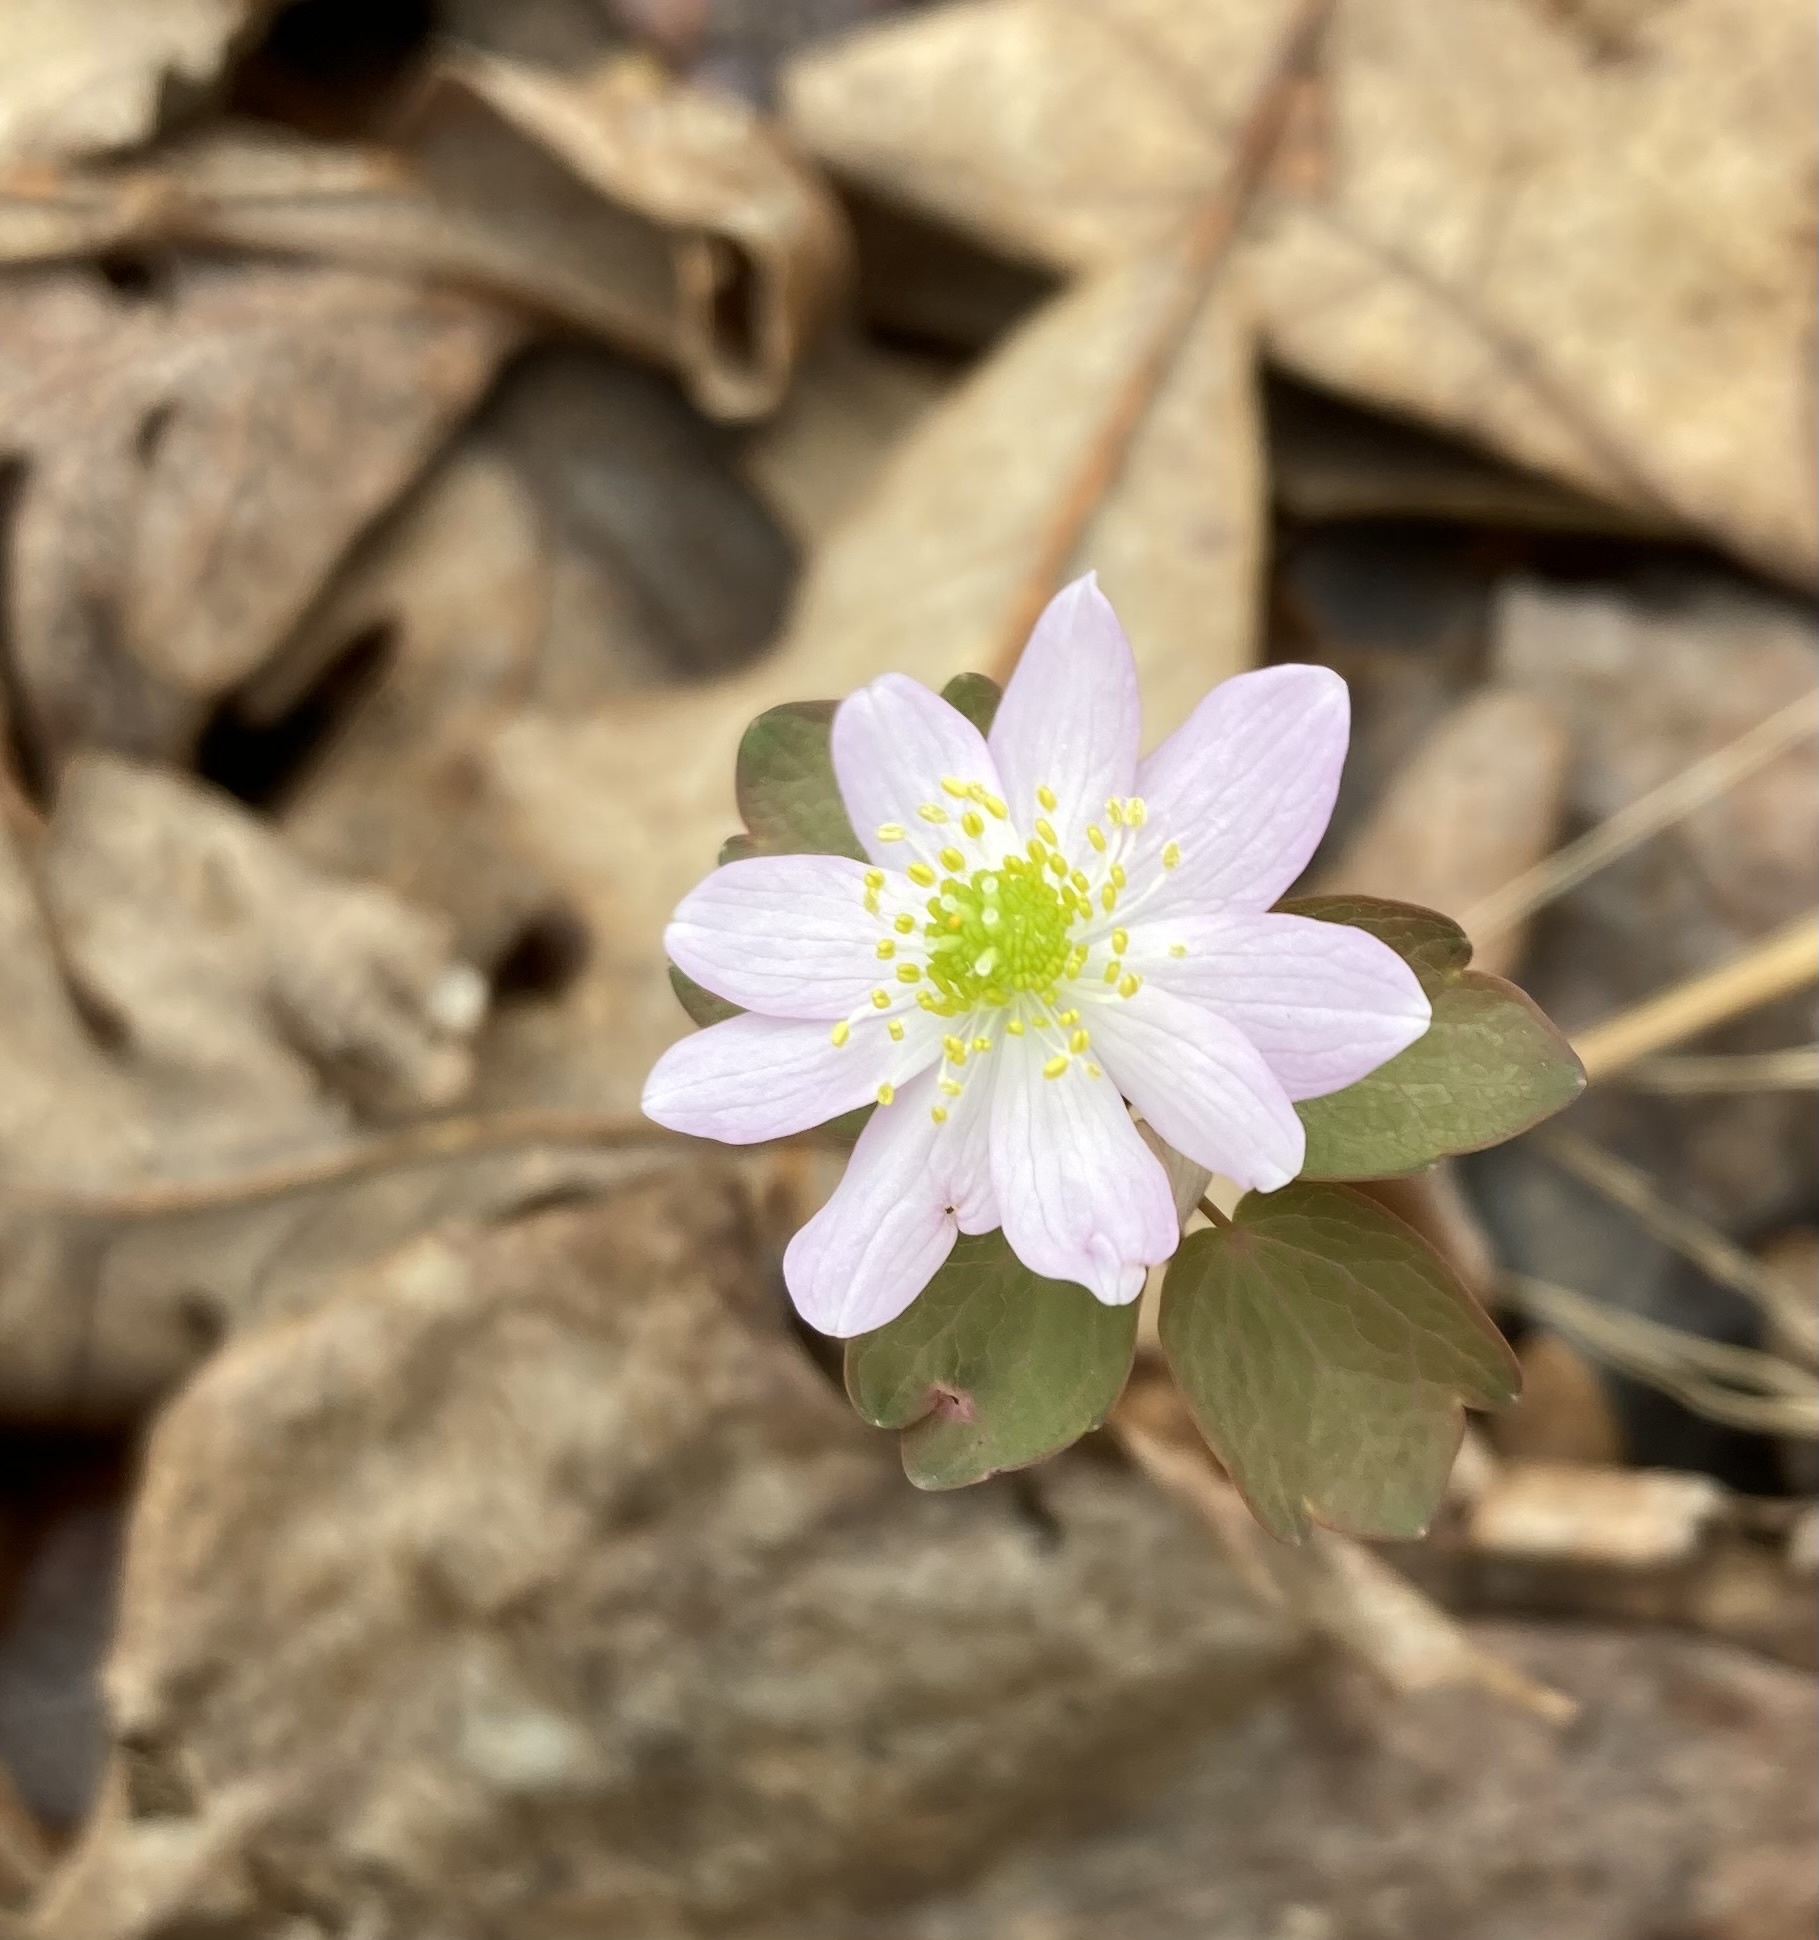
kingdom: Plantae
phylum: Tracheophyta
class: Magnoliopsida
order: Ranunculales
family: Ranunculaceae
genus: Thalictrum
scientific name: Thalictrum thalictroides
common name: Rue-anemone
